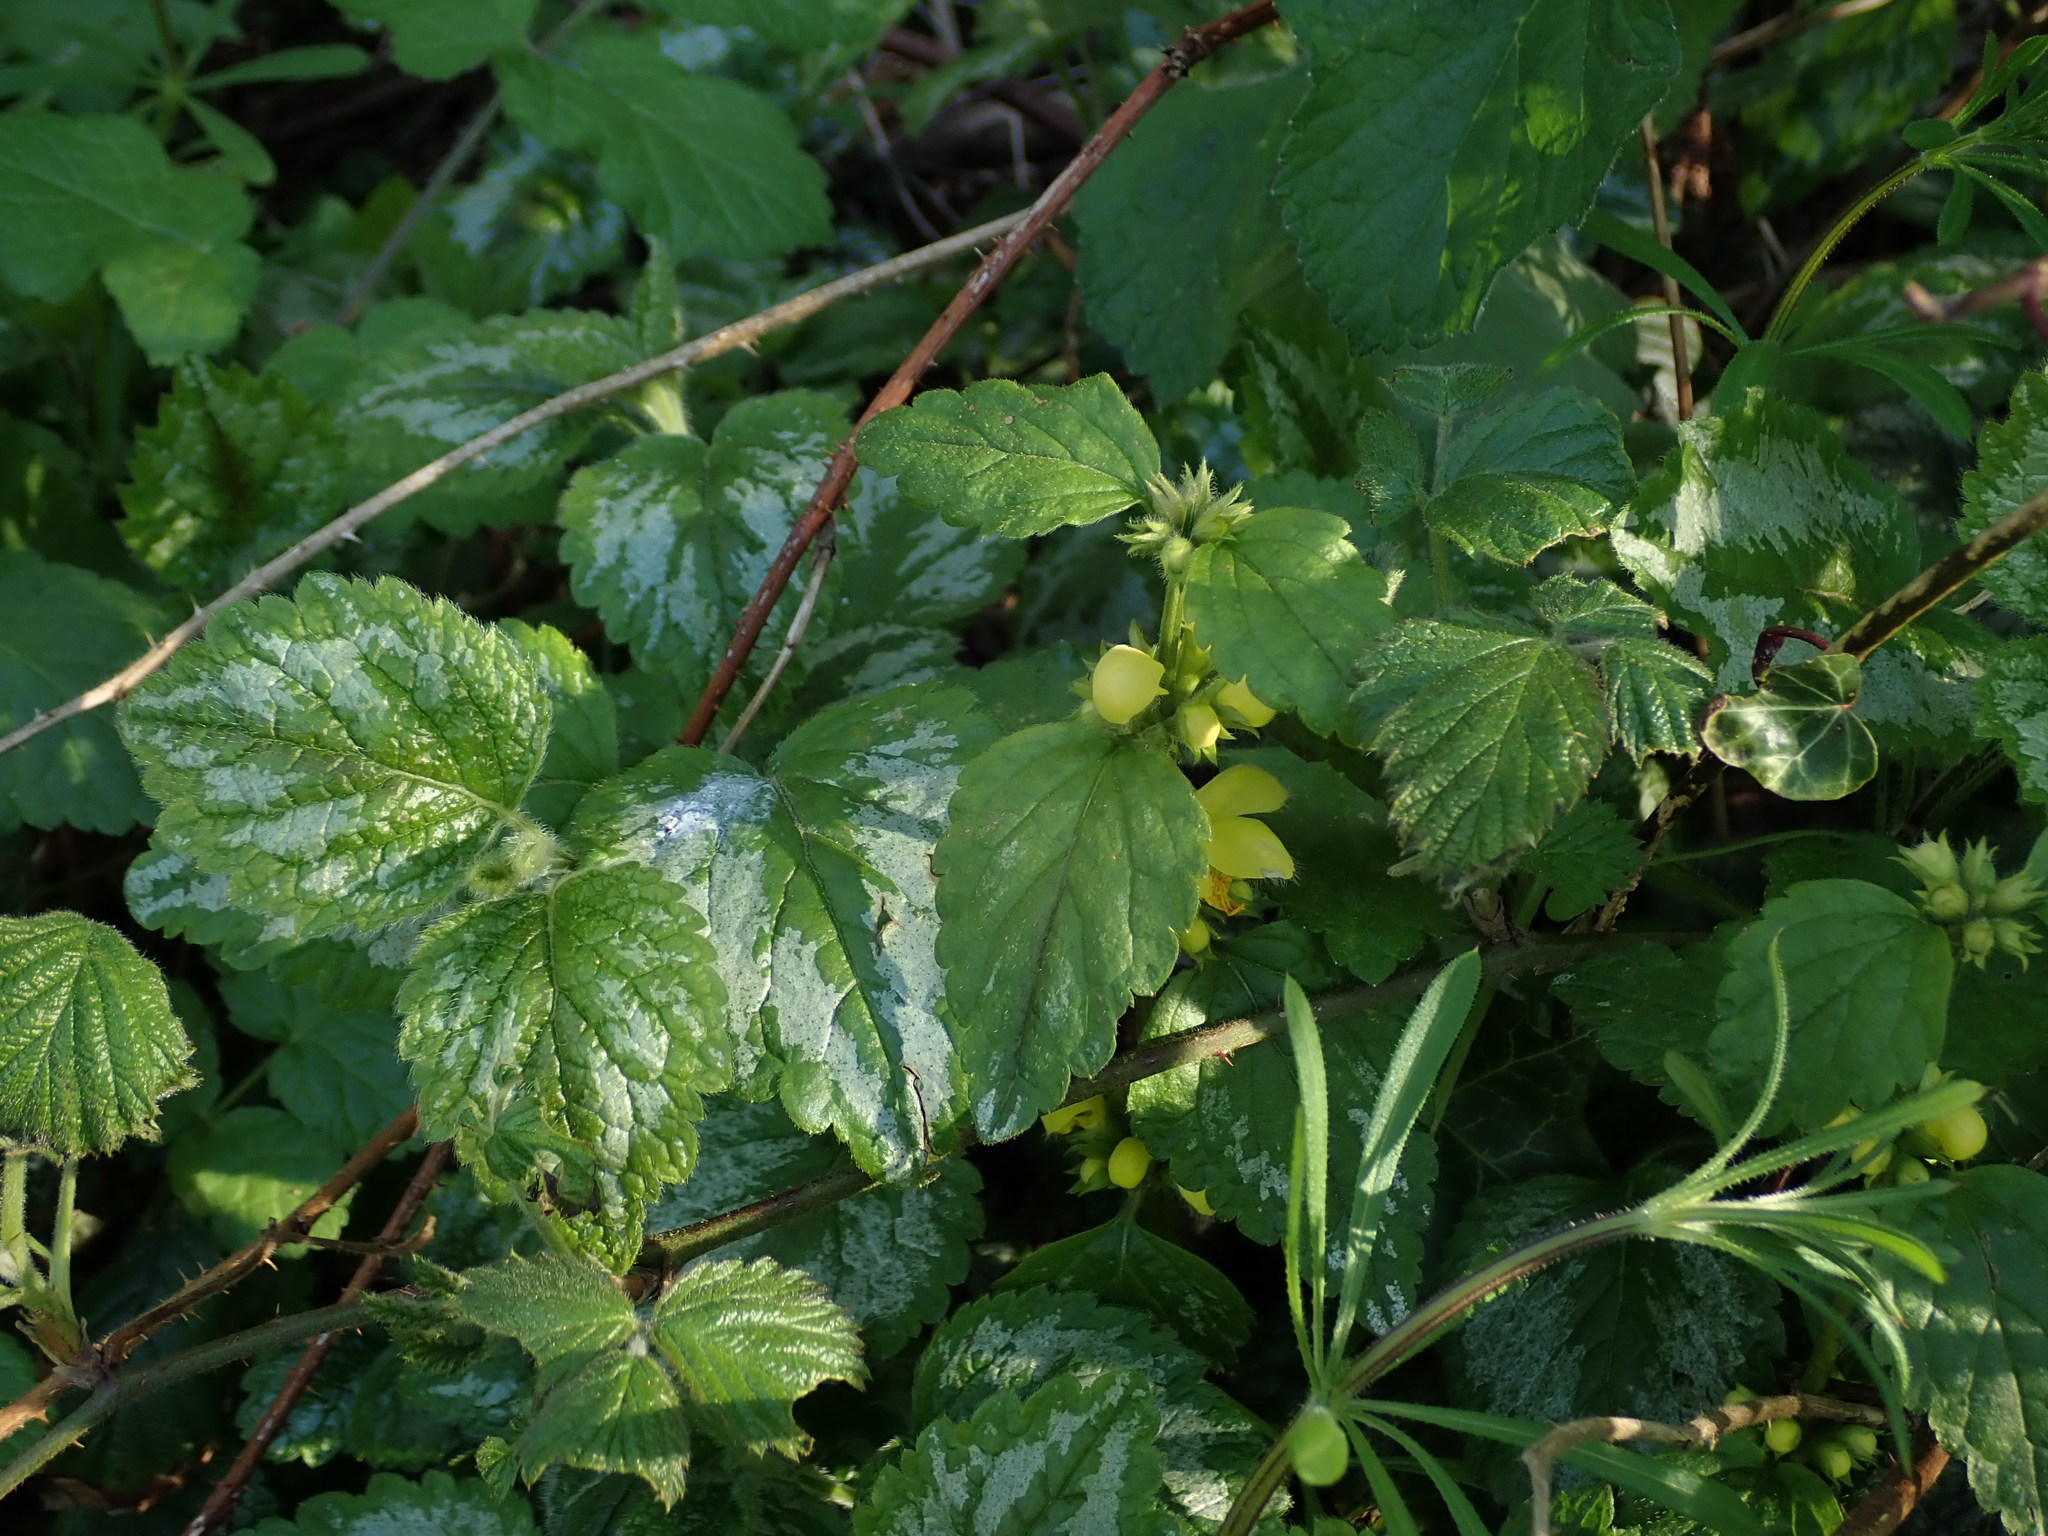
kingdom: Plantae
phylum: Tracheophyta
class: Magnoliopsida
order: Lamiales
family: Lamiaceae
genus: Lamium
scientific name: Lamium galeobdolon
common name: Yellow archangel
